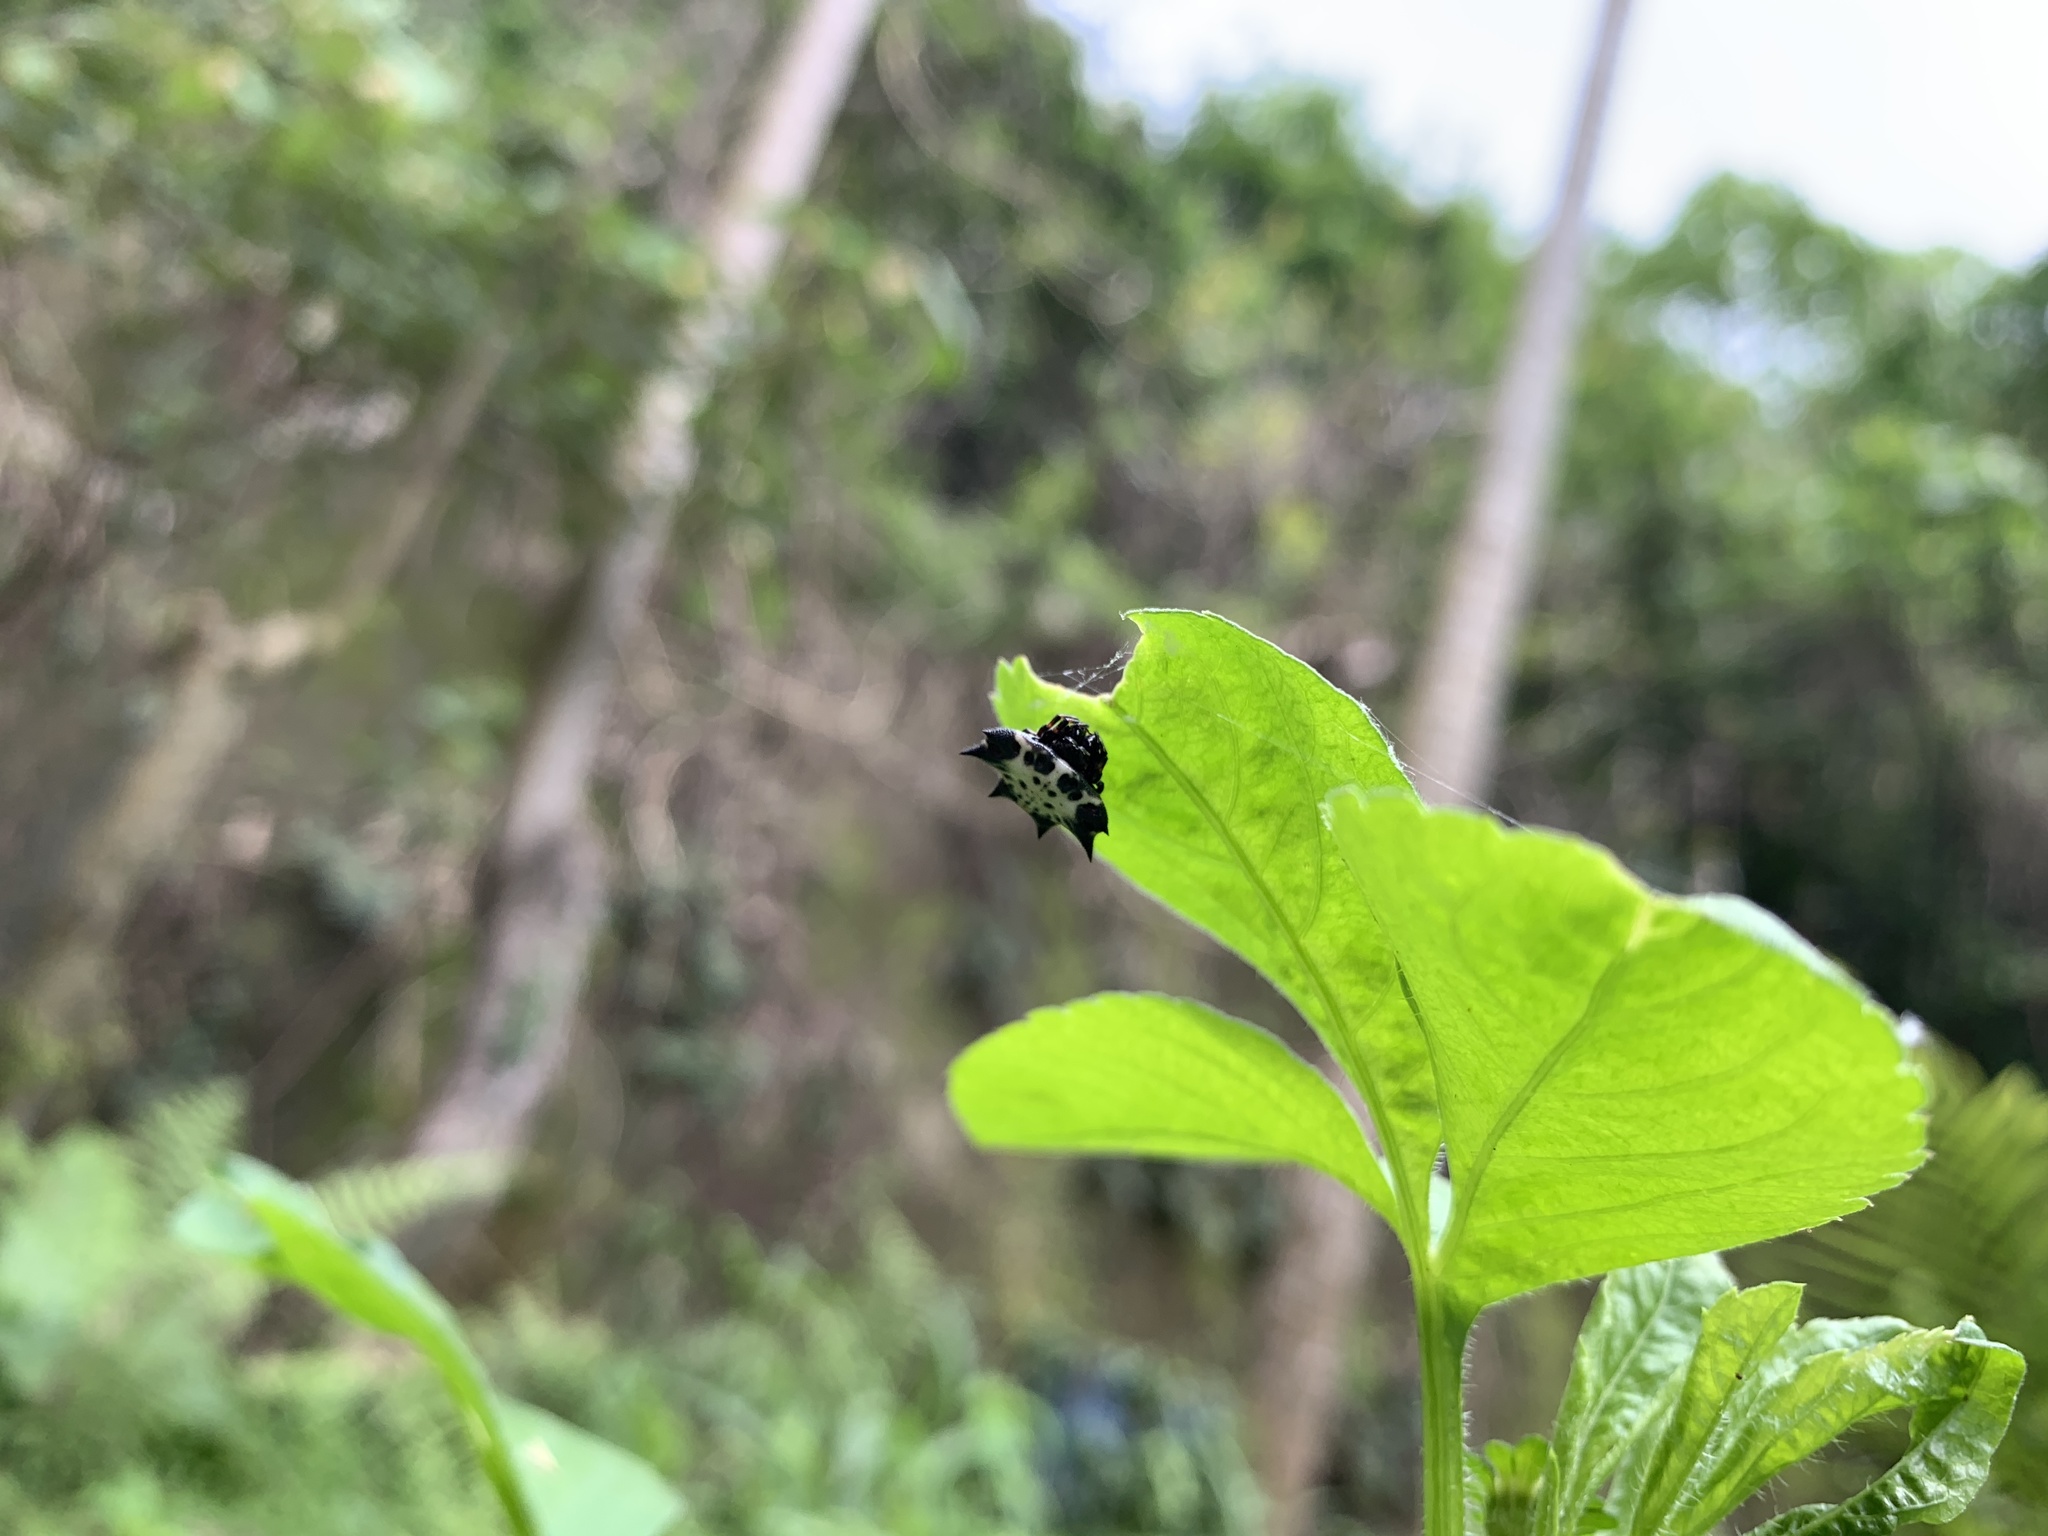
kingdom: Animalia
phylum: Arthropoda
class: Arachnida
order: Araneae
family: Araneidae
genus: Gasteracantha
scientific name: Gasteracantha kuhli
